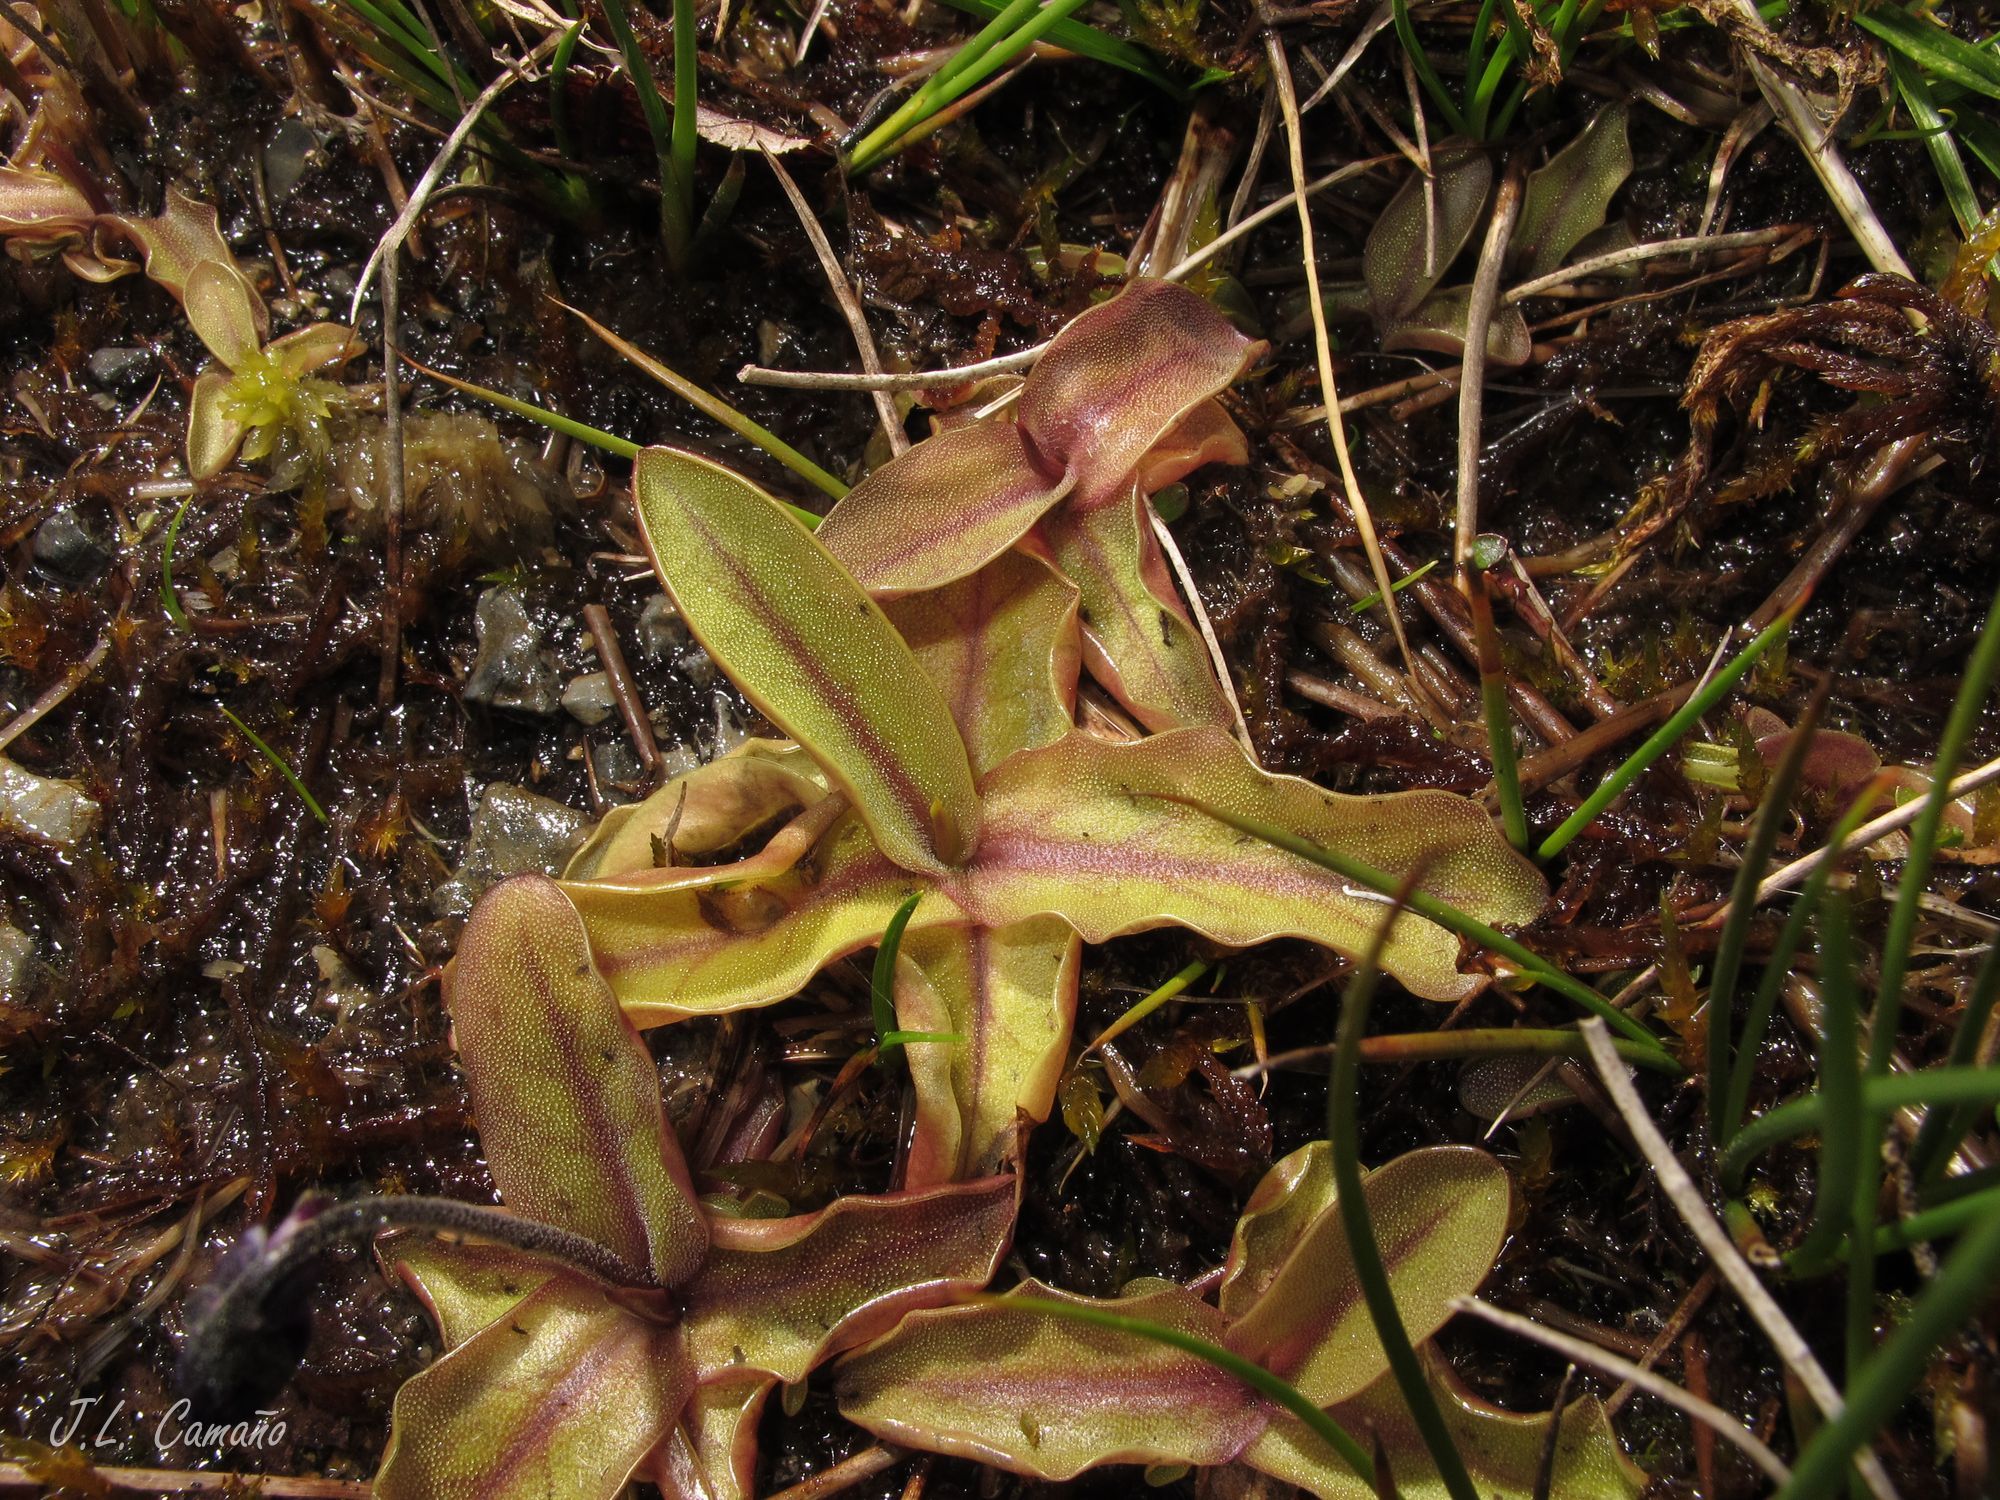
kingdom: Plantae
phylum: Tracheophyta
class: Magnoliopsida
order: Lamiales
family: Lentibulariaceae
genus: Pinguicula
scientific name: Pinguicula grandiflora
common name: Large-flowered butterwort
